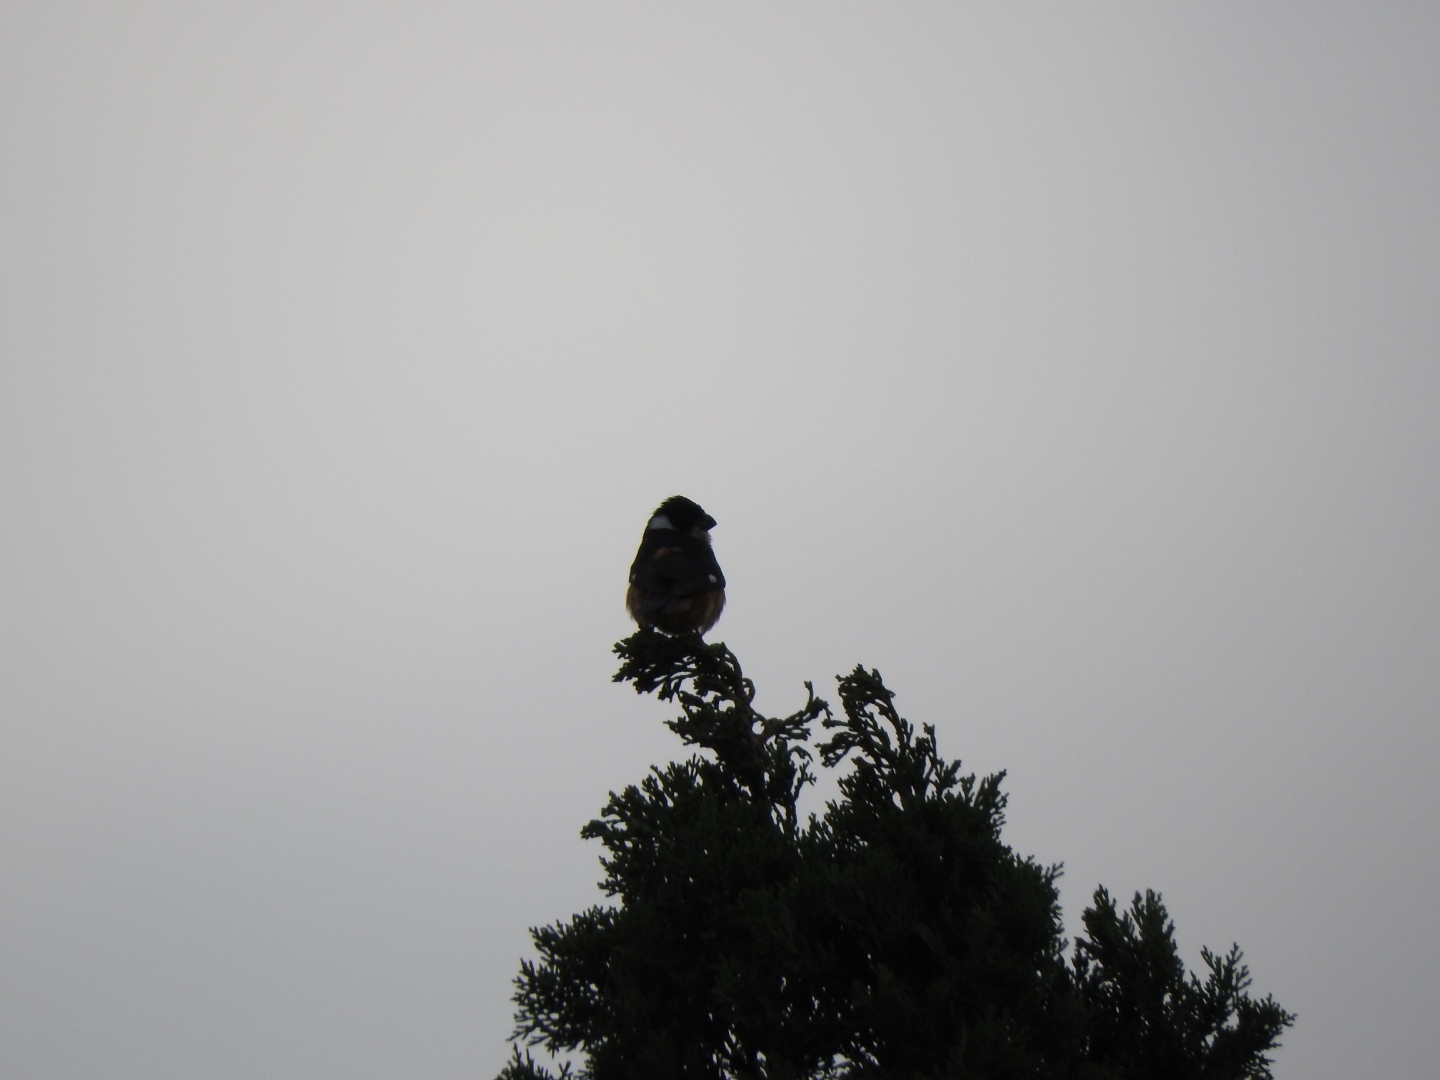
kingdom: Animalia
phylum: Chordata
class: Aves
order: Passeriformes
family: Thraupidae
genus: Sporophila
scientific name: Sporophila torqueola
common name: White-collared seedeater
